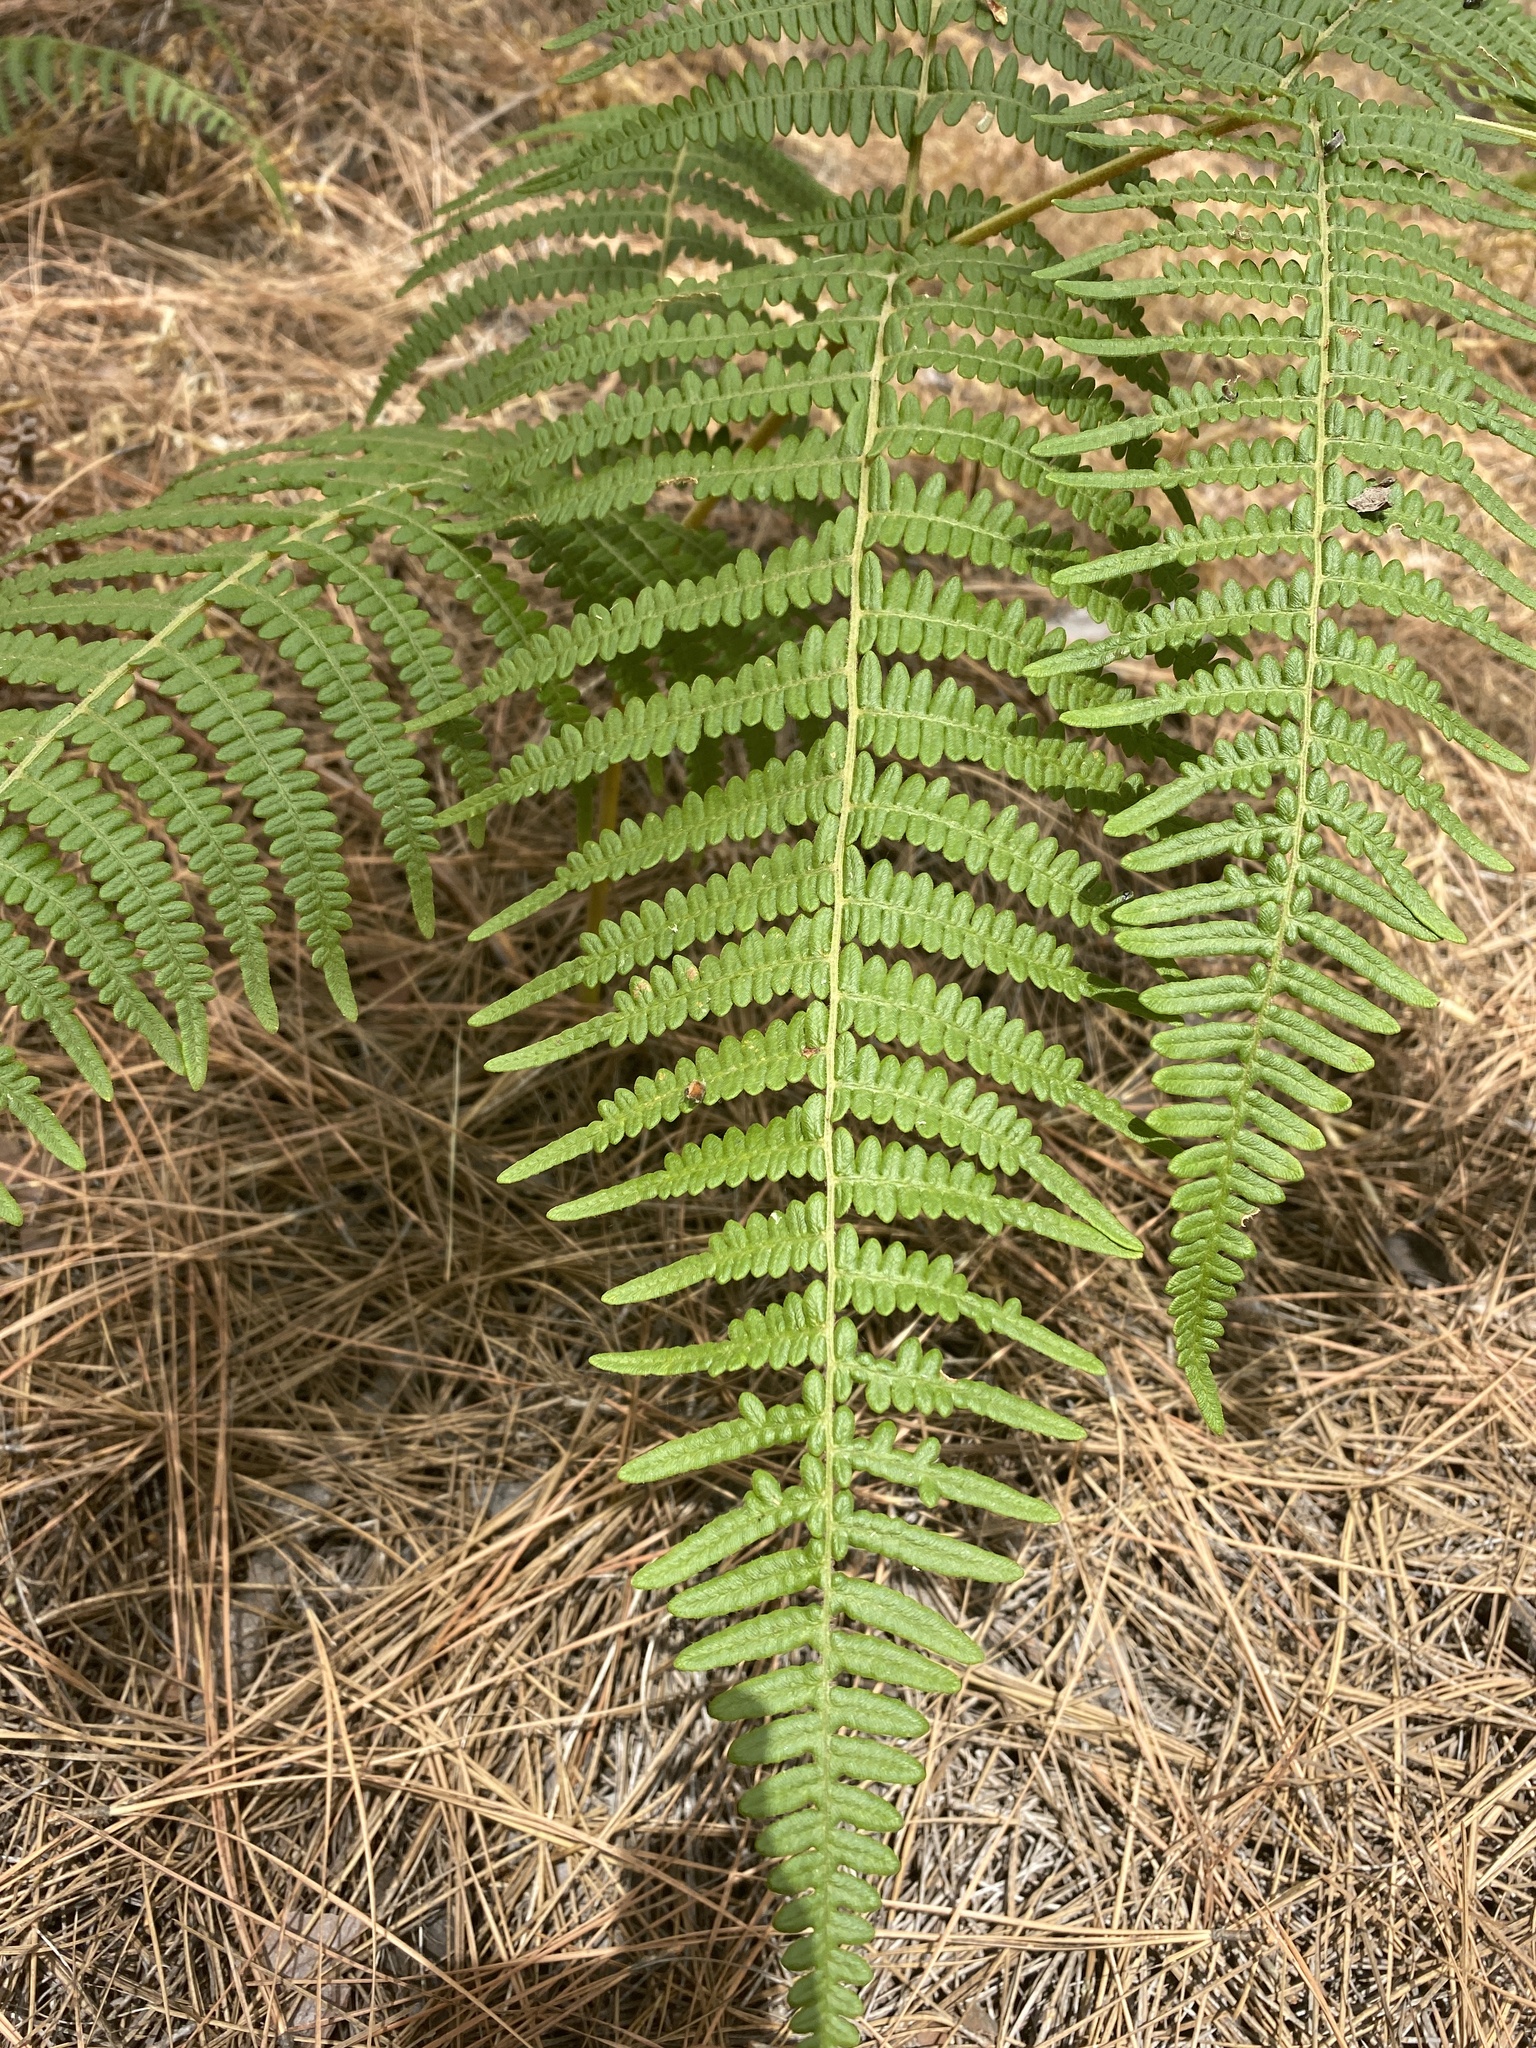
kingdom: Plantae
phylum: Tracheophyta
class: Polypodiopsida
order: Polypodiales
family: Dennstaedtiaceae
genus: Pteridium
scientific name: Pteridium aquilinum
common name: Bracken
